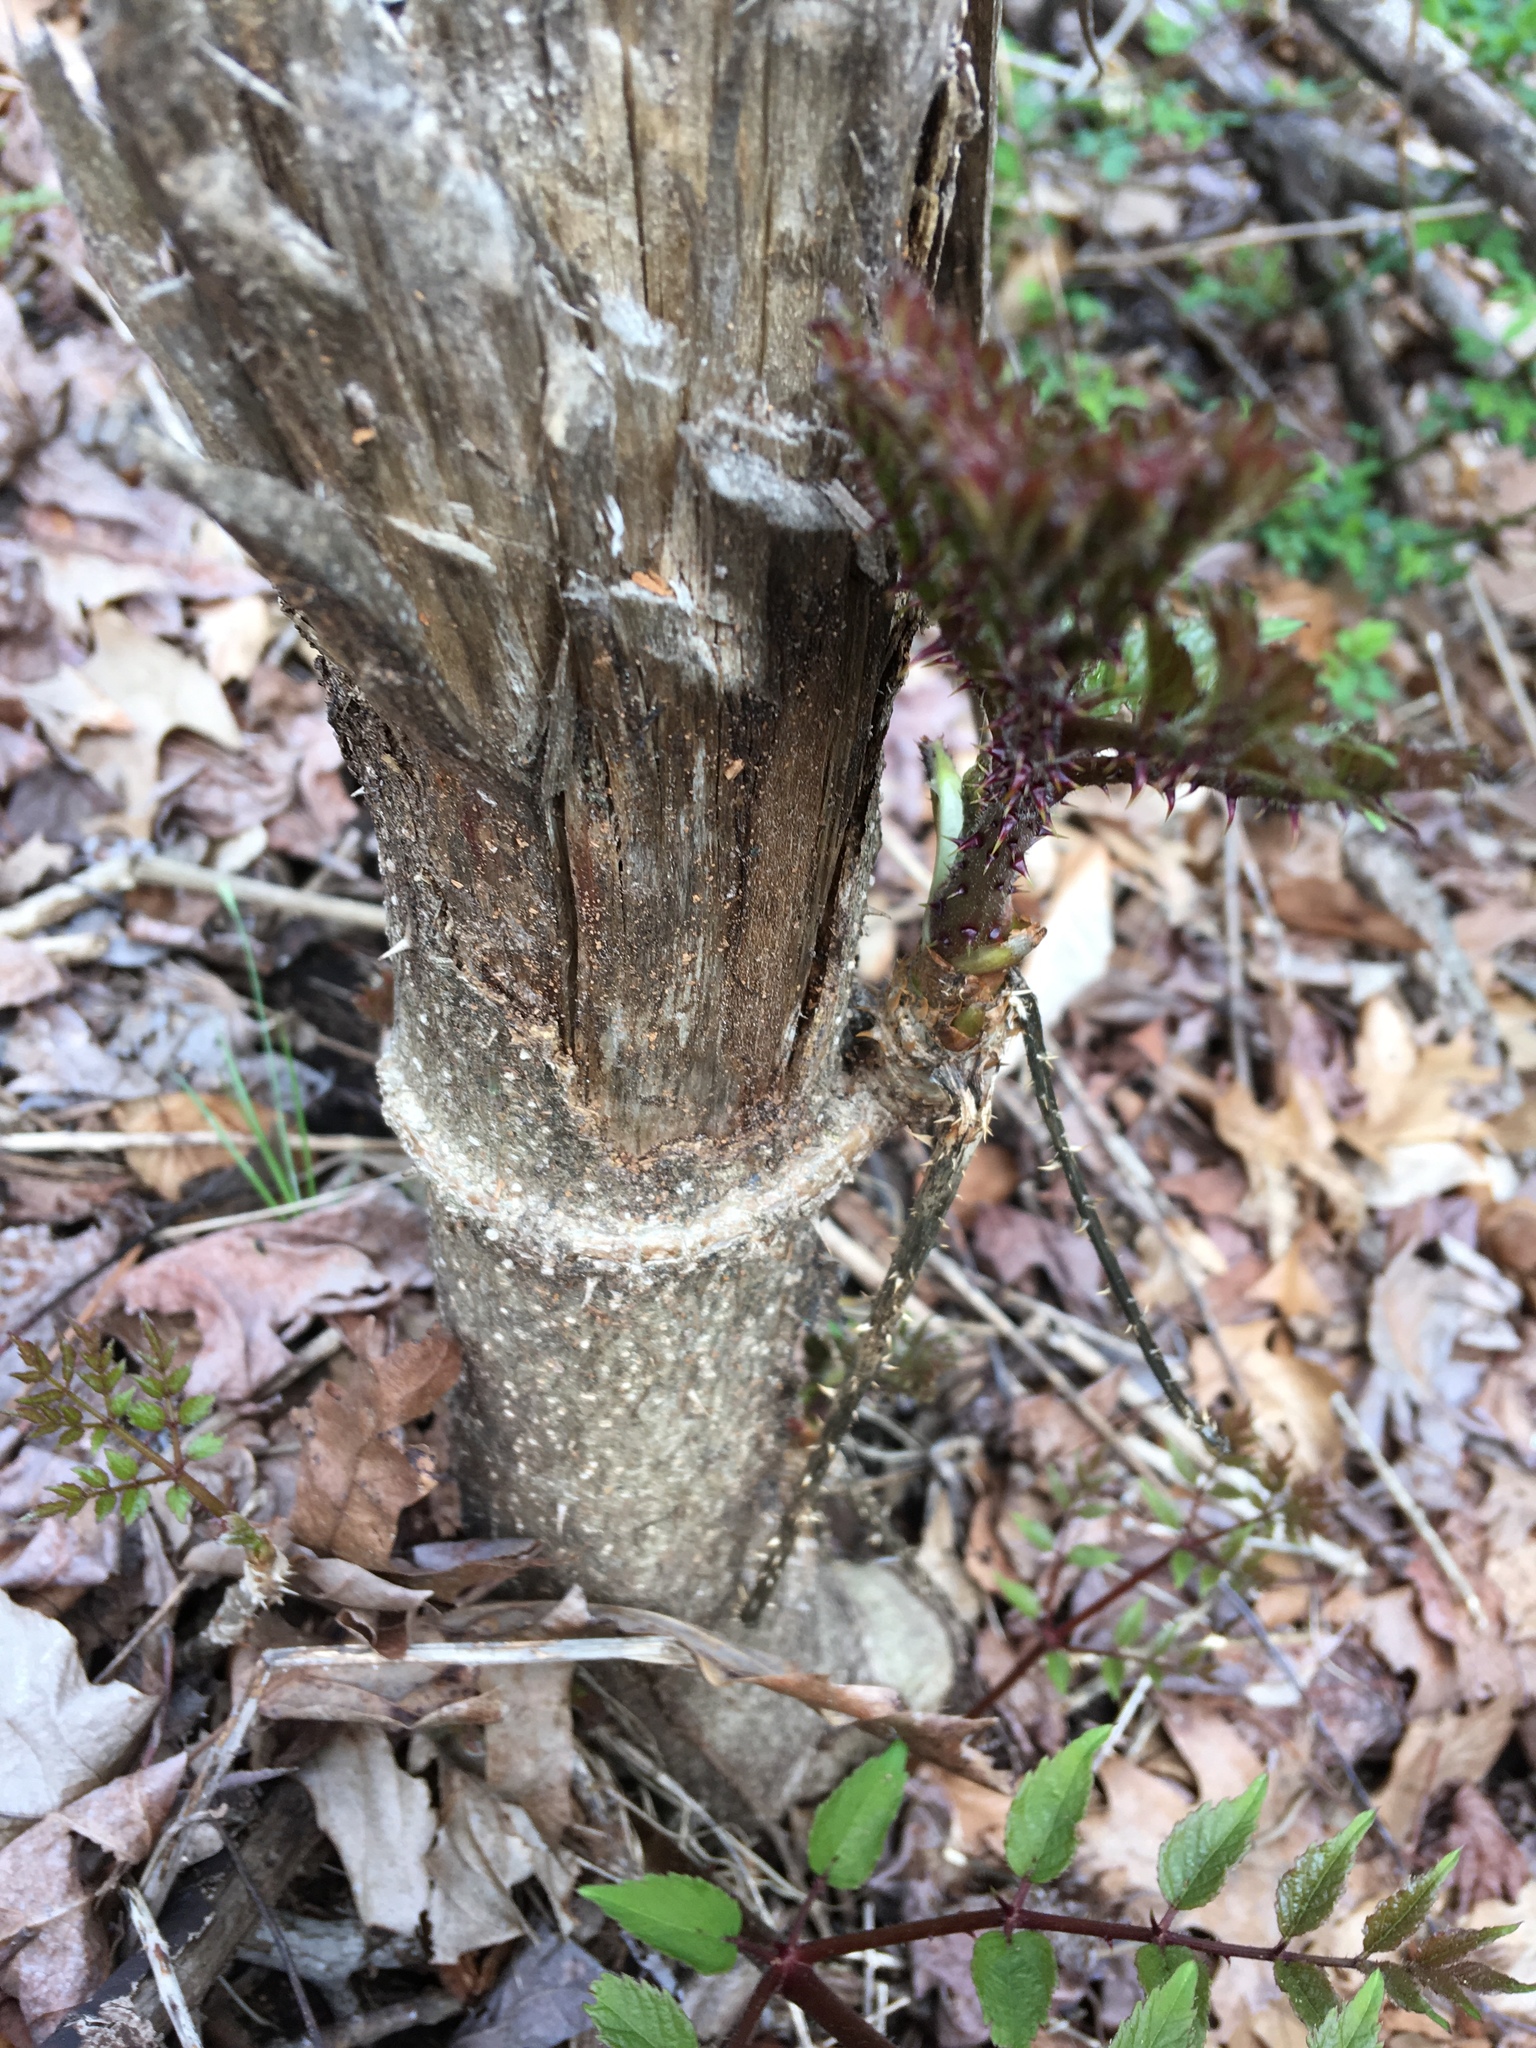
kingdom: Plantae
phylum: Tracheophyta
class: Magnoliopsida
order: Apiales
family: Araliaceae
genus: Aralia
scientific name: Aralia elata
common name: Japanese angelica-tree
